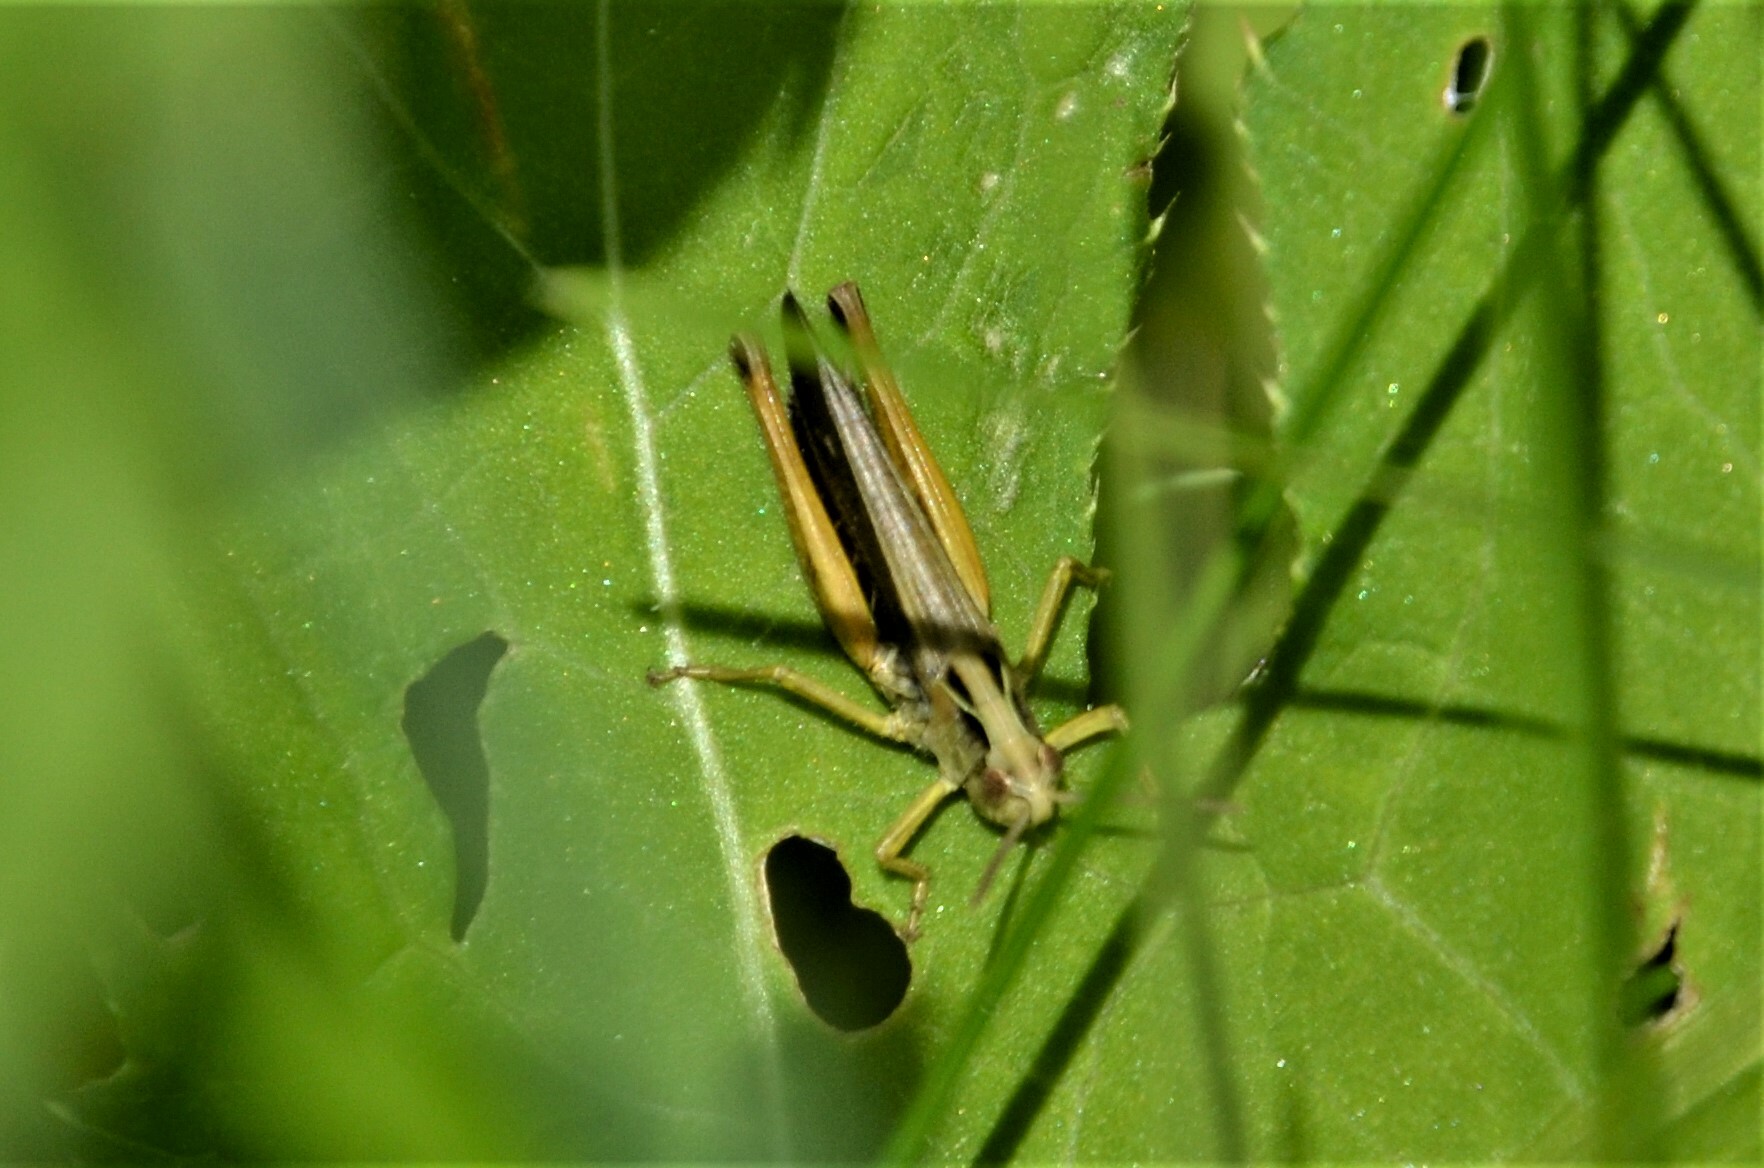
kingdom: Animalia
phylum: Arthropoda
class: Insecta
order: Orthoptera
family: Acrididae
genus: Omocestus
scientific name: Omocestus viridulus
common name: Common green grasshopper
